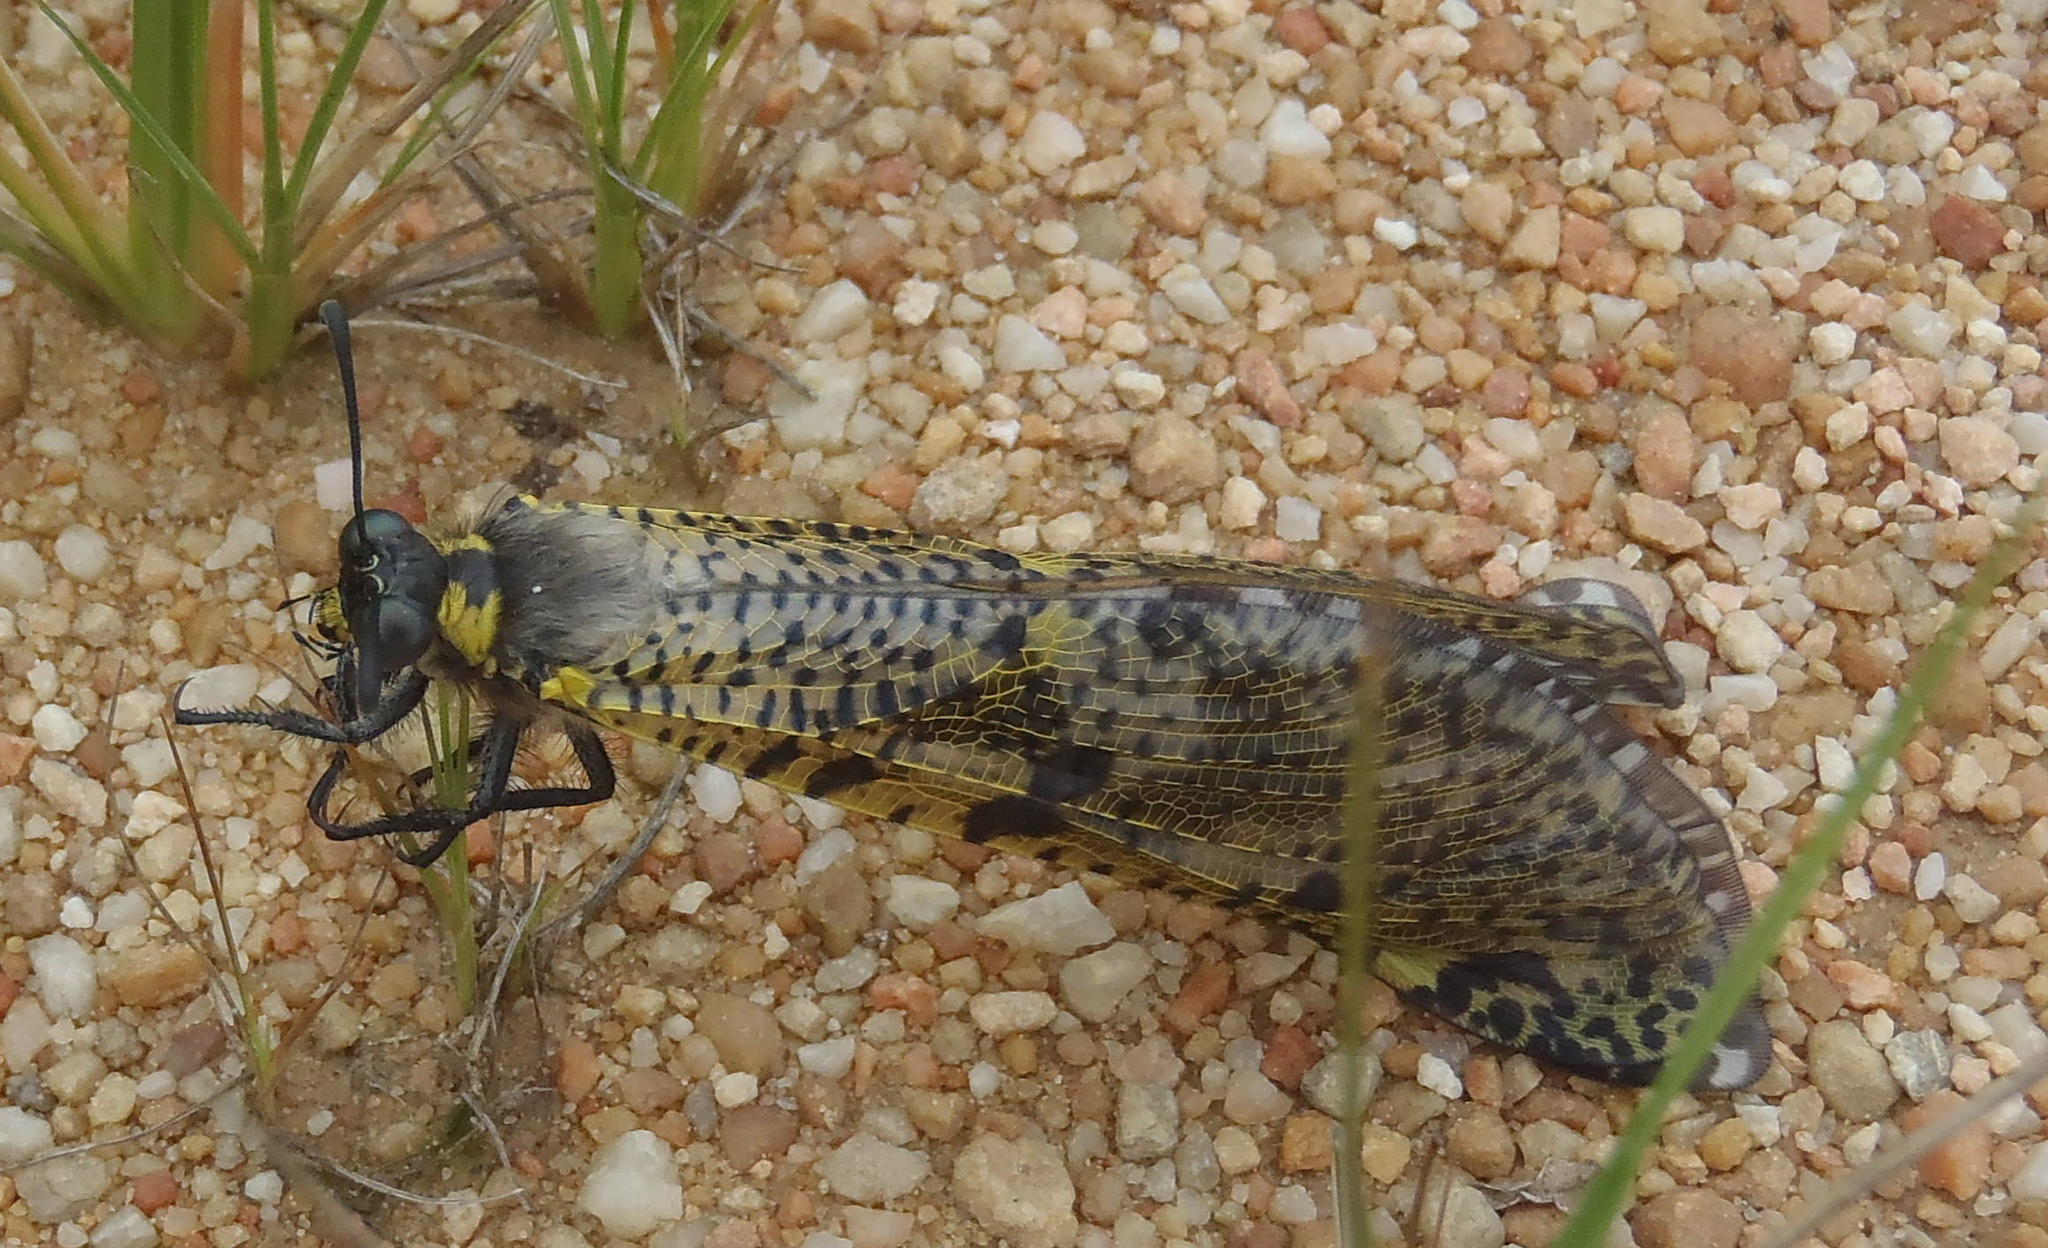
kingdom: Animalia
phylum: Arthropoda
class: Insecta
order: Neuroptera
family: Myrmeleontidae
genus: Palpares
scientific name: Palpares speciosus
